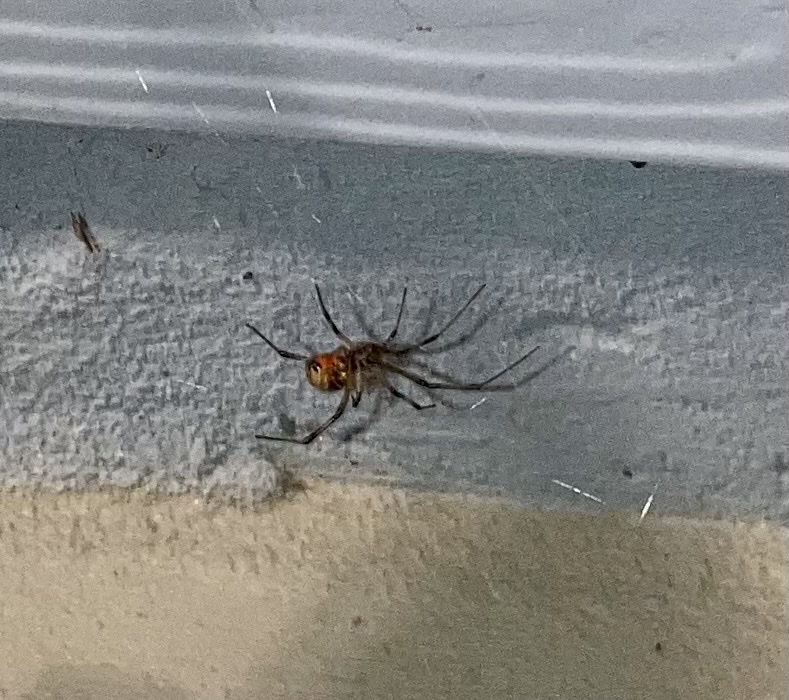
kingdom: Animalia
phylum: Arthropoda
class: Arachnida
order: Araneae
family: Theridiidae
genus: Latrodectus
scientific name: Latrodectus geometricus
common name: Brown widow spider
